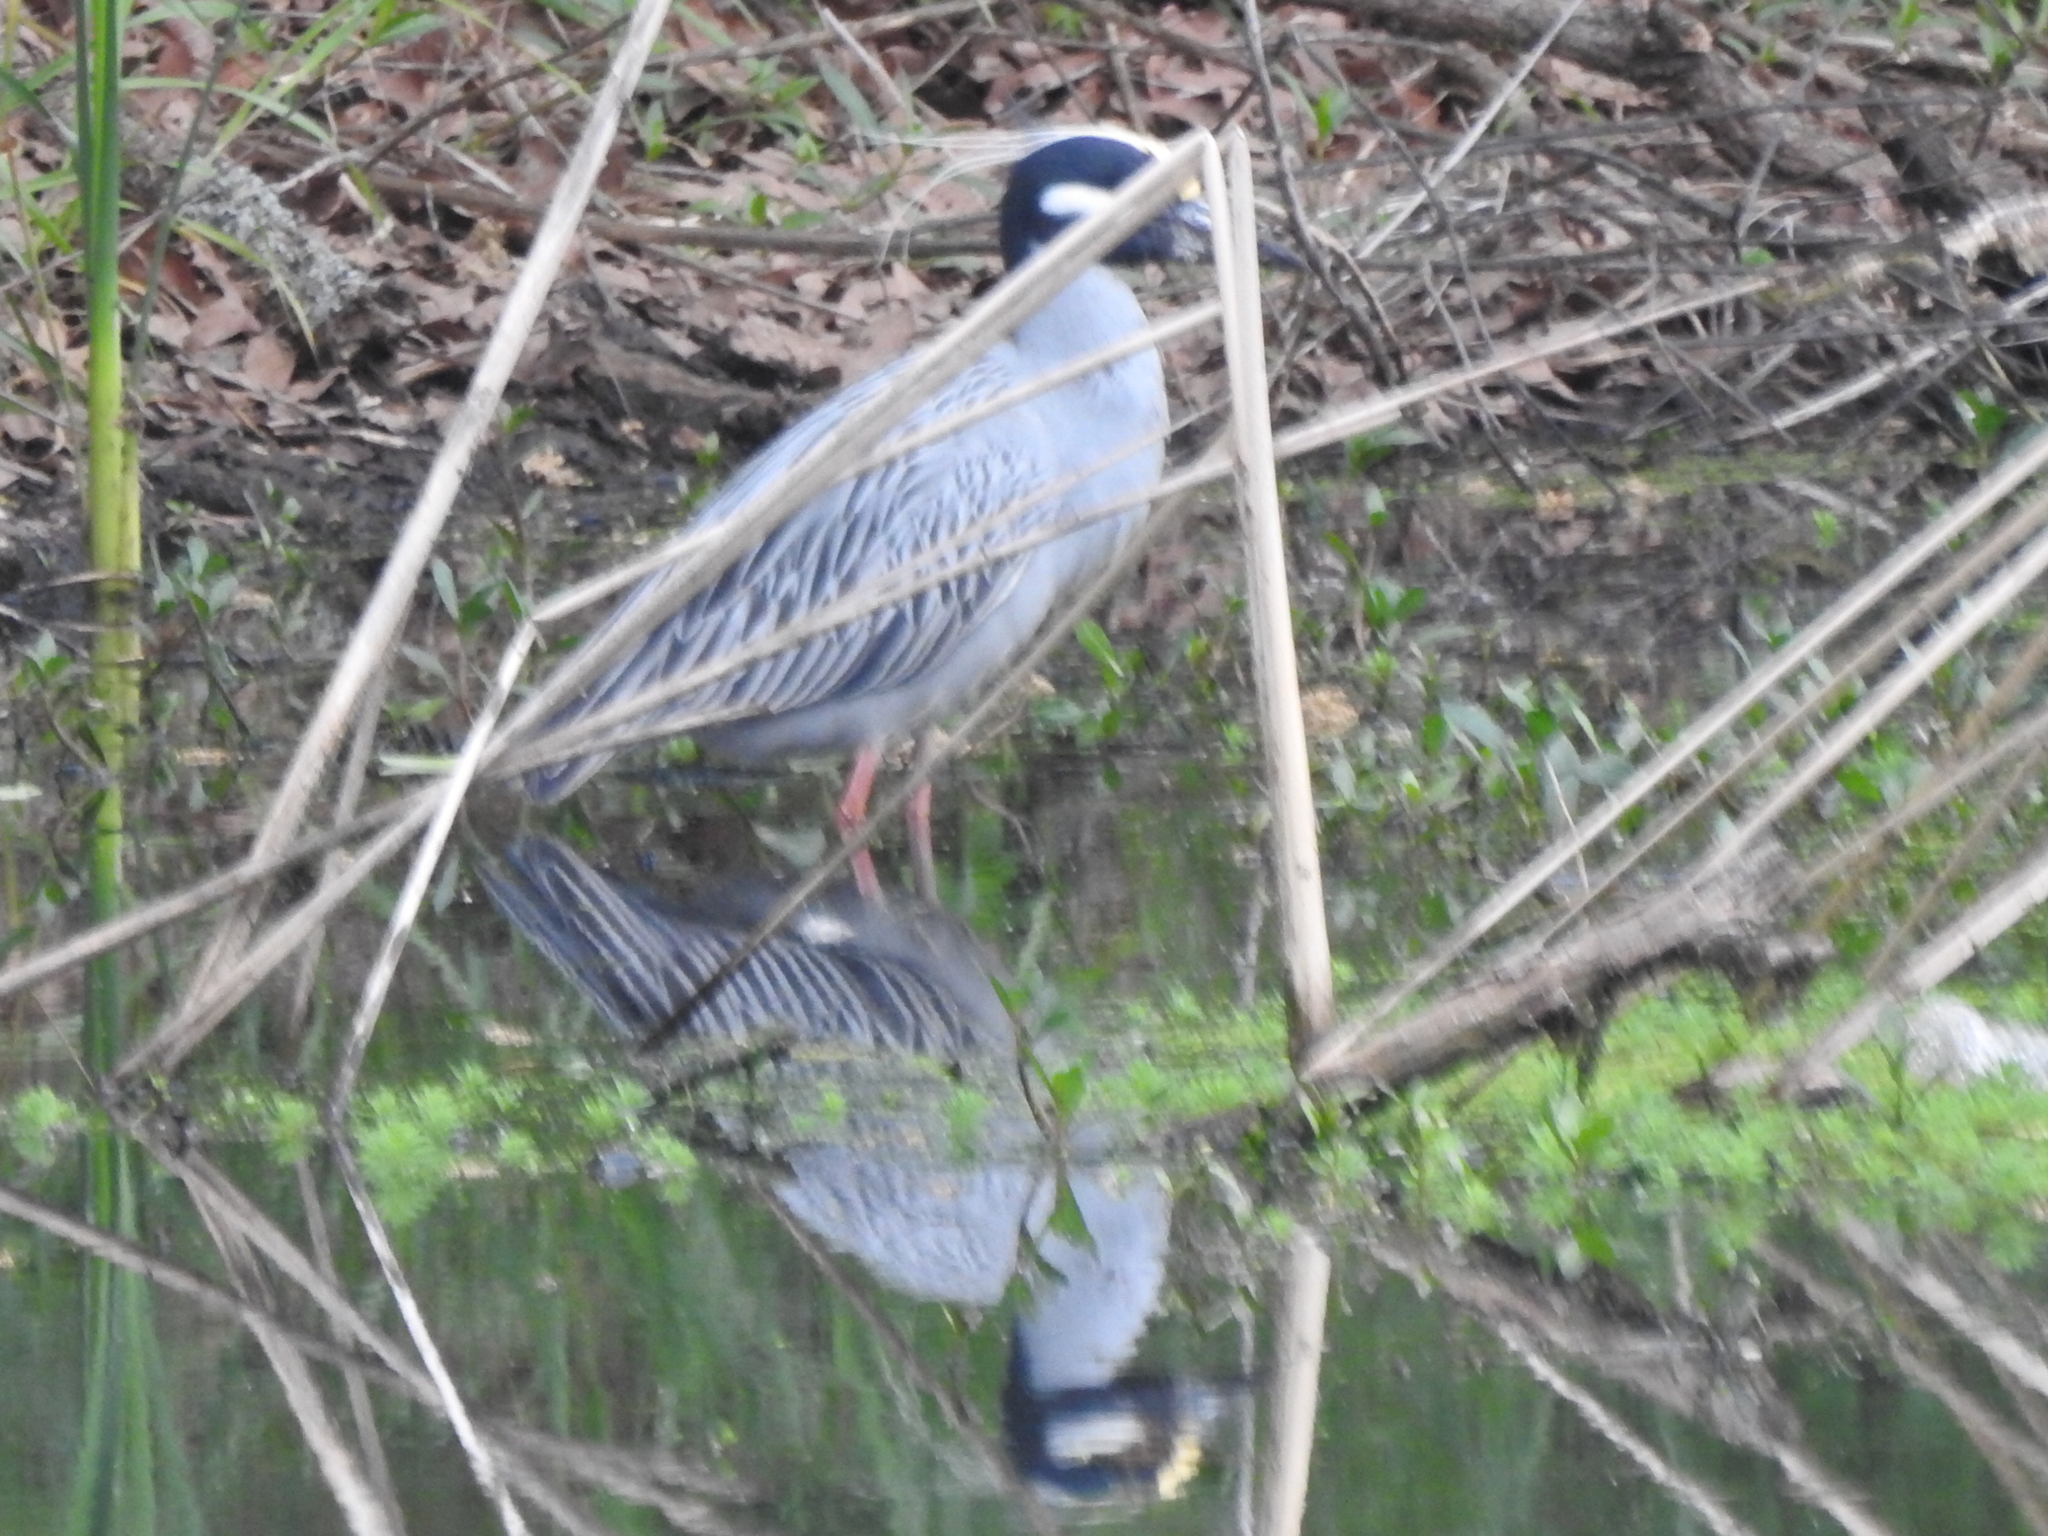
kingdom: Animalia
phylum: Chordata
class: Aves
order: Pelecaniformes
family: Ardeidae
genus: Nyctanassa
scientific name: Nyctanassa violacea
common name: Yellow-crowned night heron
